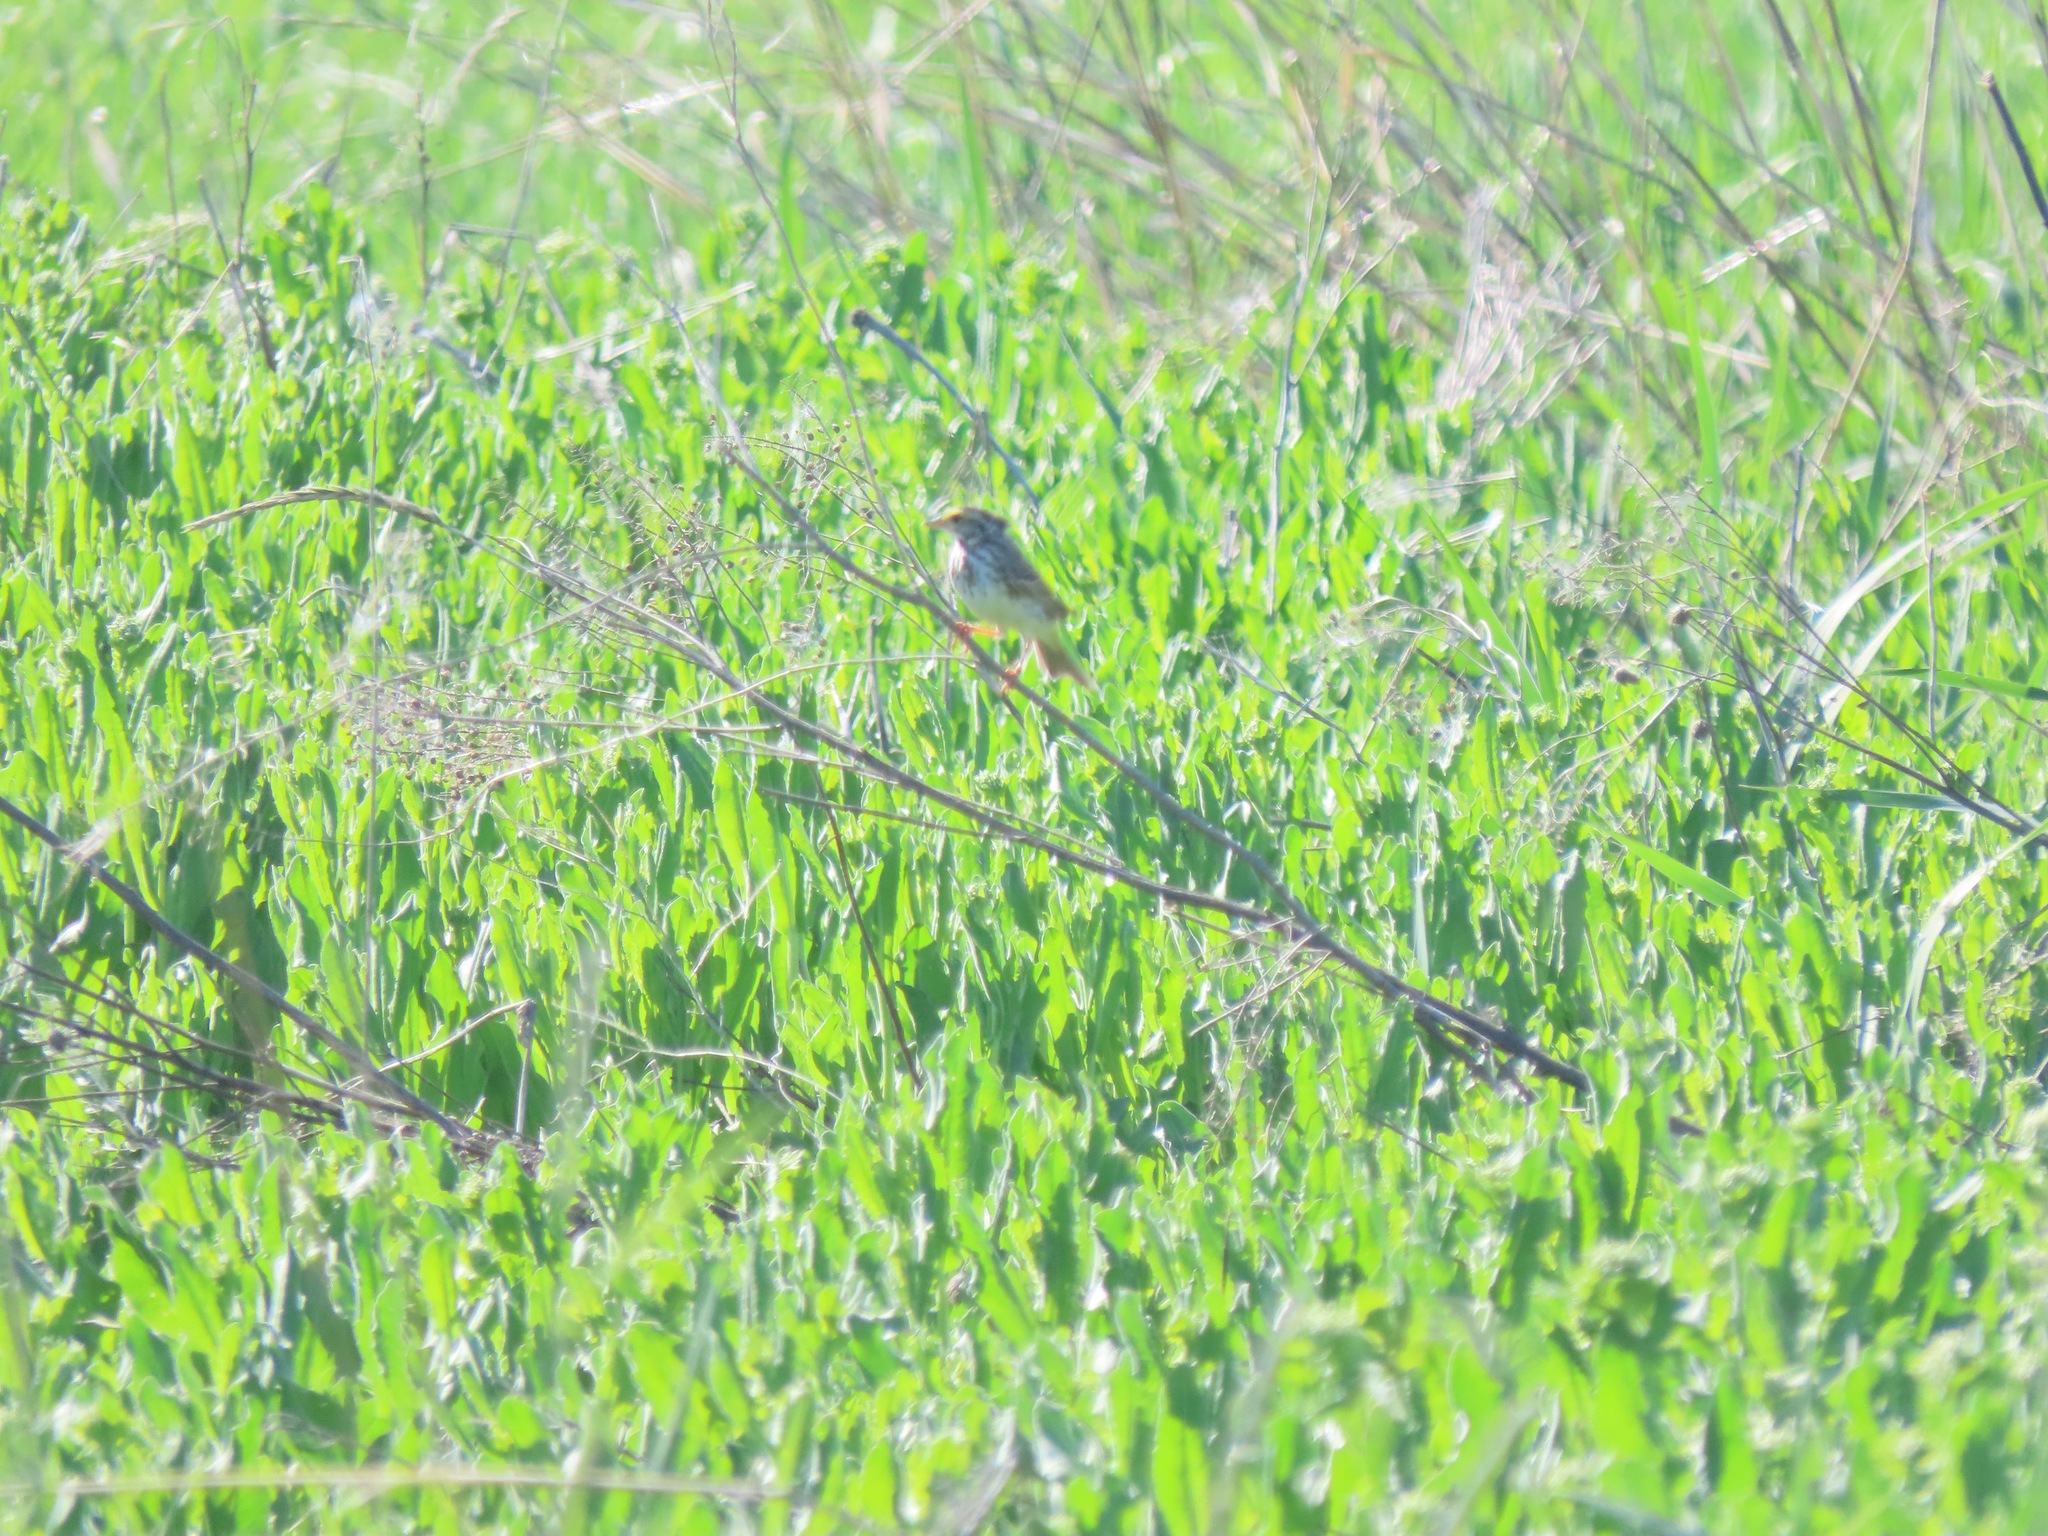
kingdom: Animalia
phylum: Chordata
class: Aves
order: Passeriformes
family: Passerellidae
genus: Passerculus
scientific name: Passerculus sandwichensis
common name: Savannah sparrow
